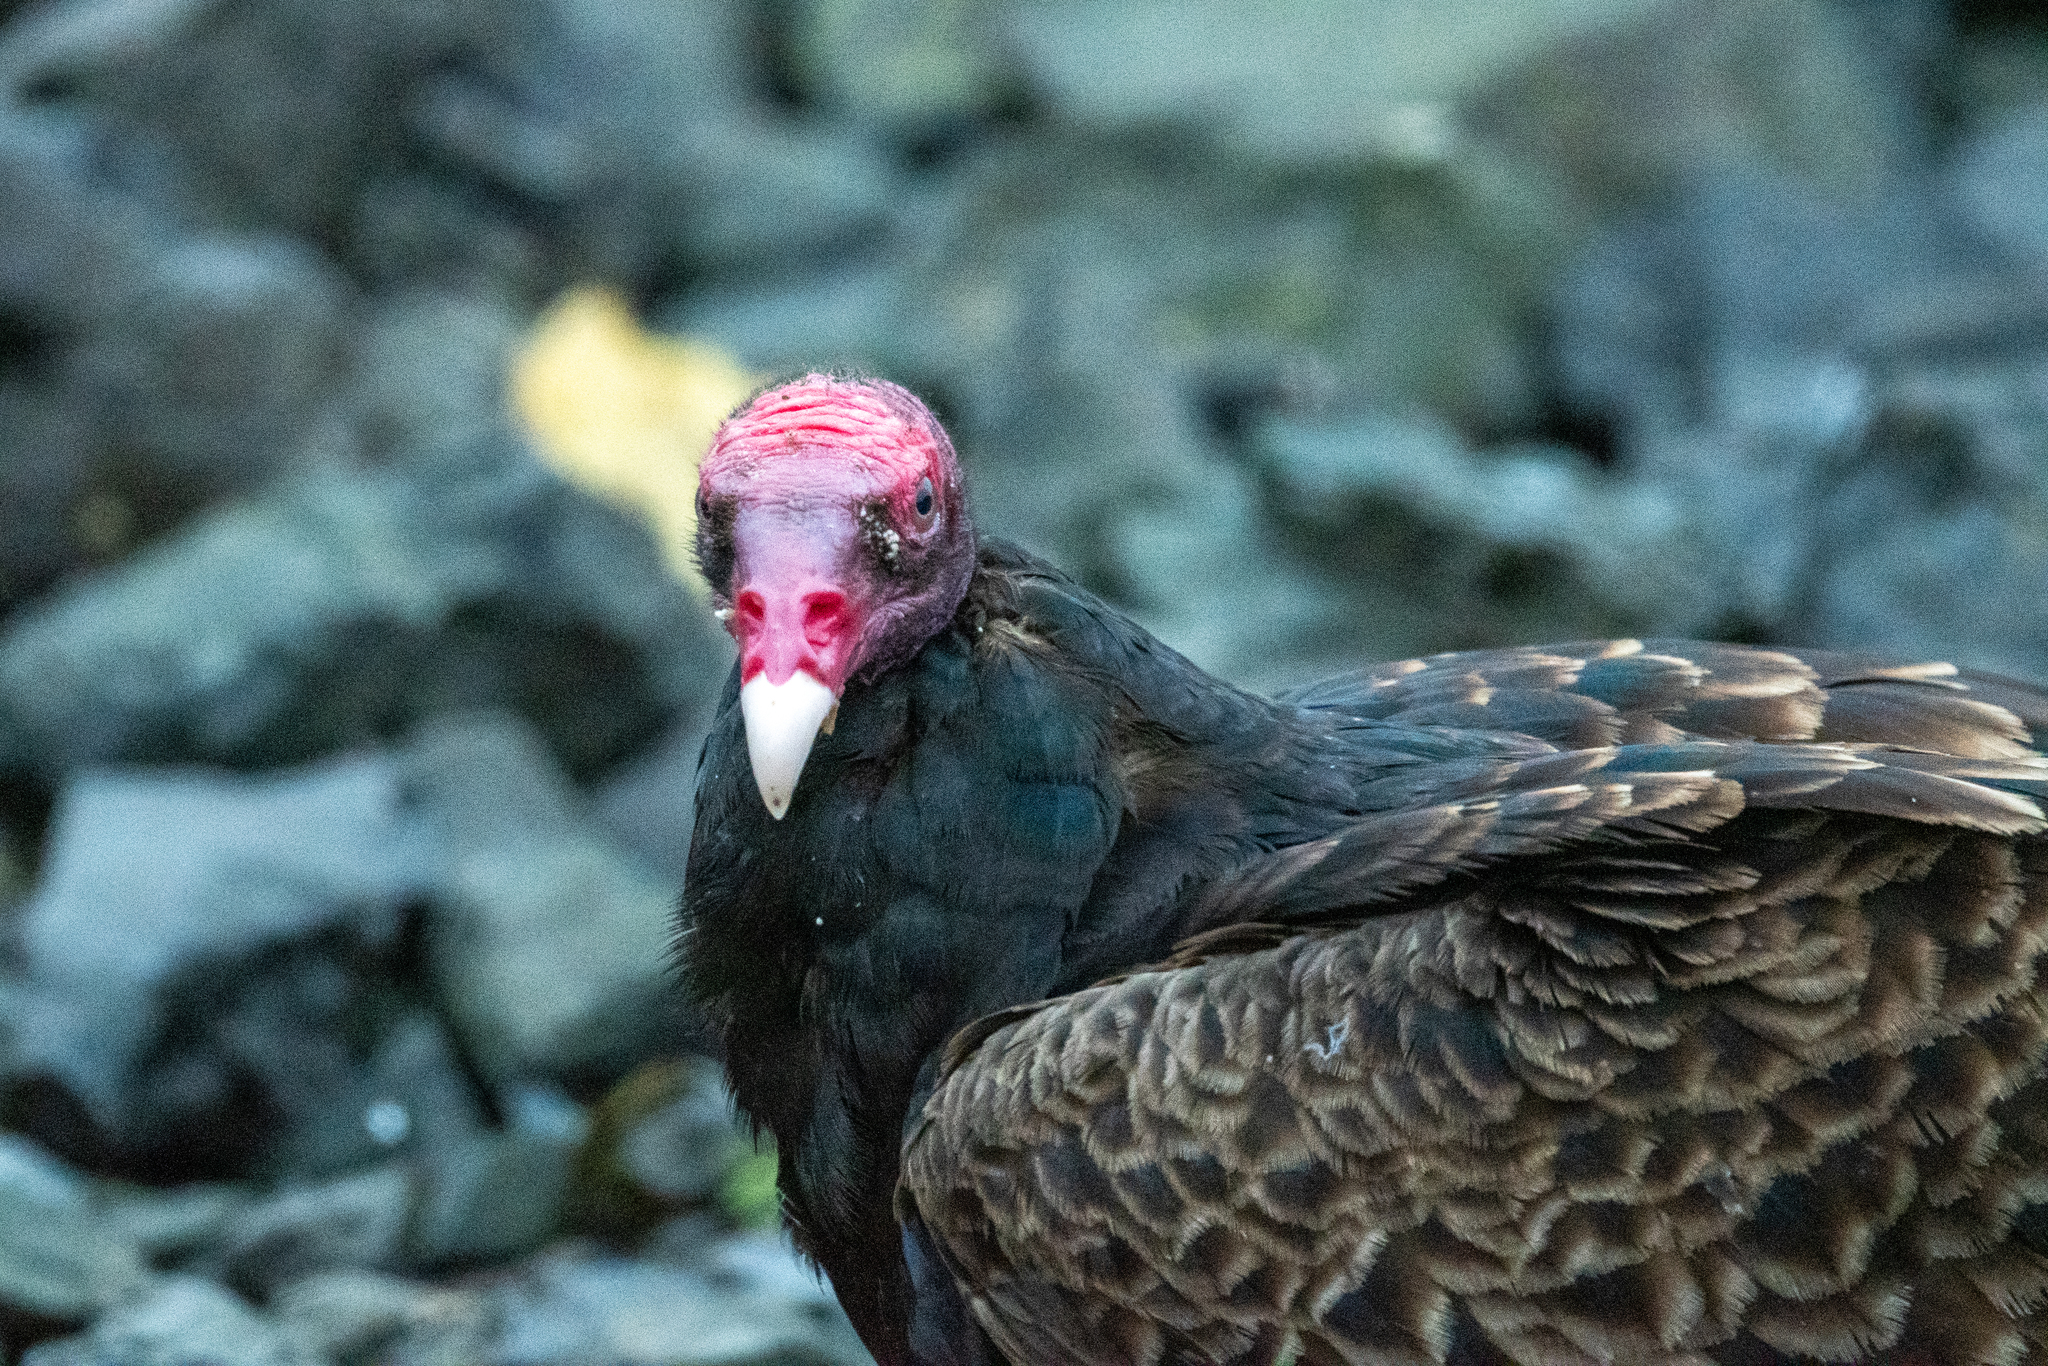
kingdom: Animalia
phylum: Chordata
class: Aves
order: Accipitriformes
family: Cathartidae
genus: Cathartes
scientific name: Cathartes aura
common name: Turkey vulture
